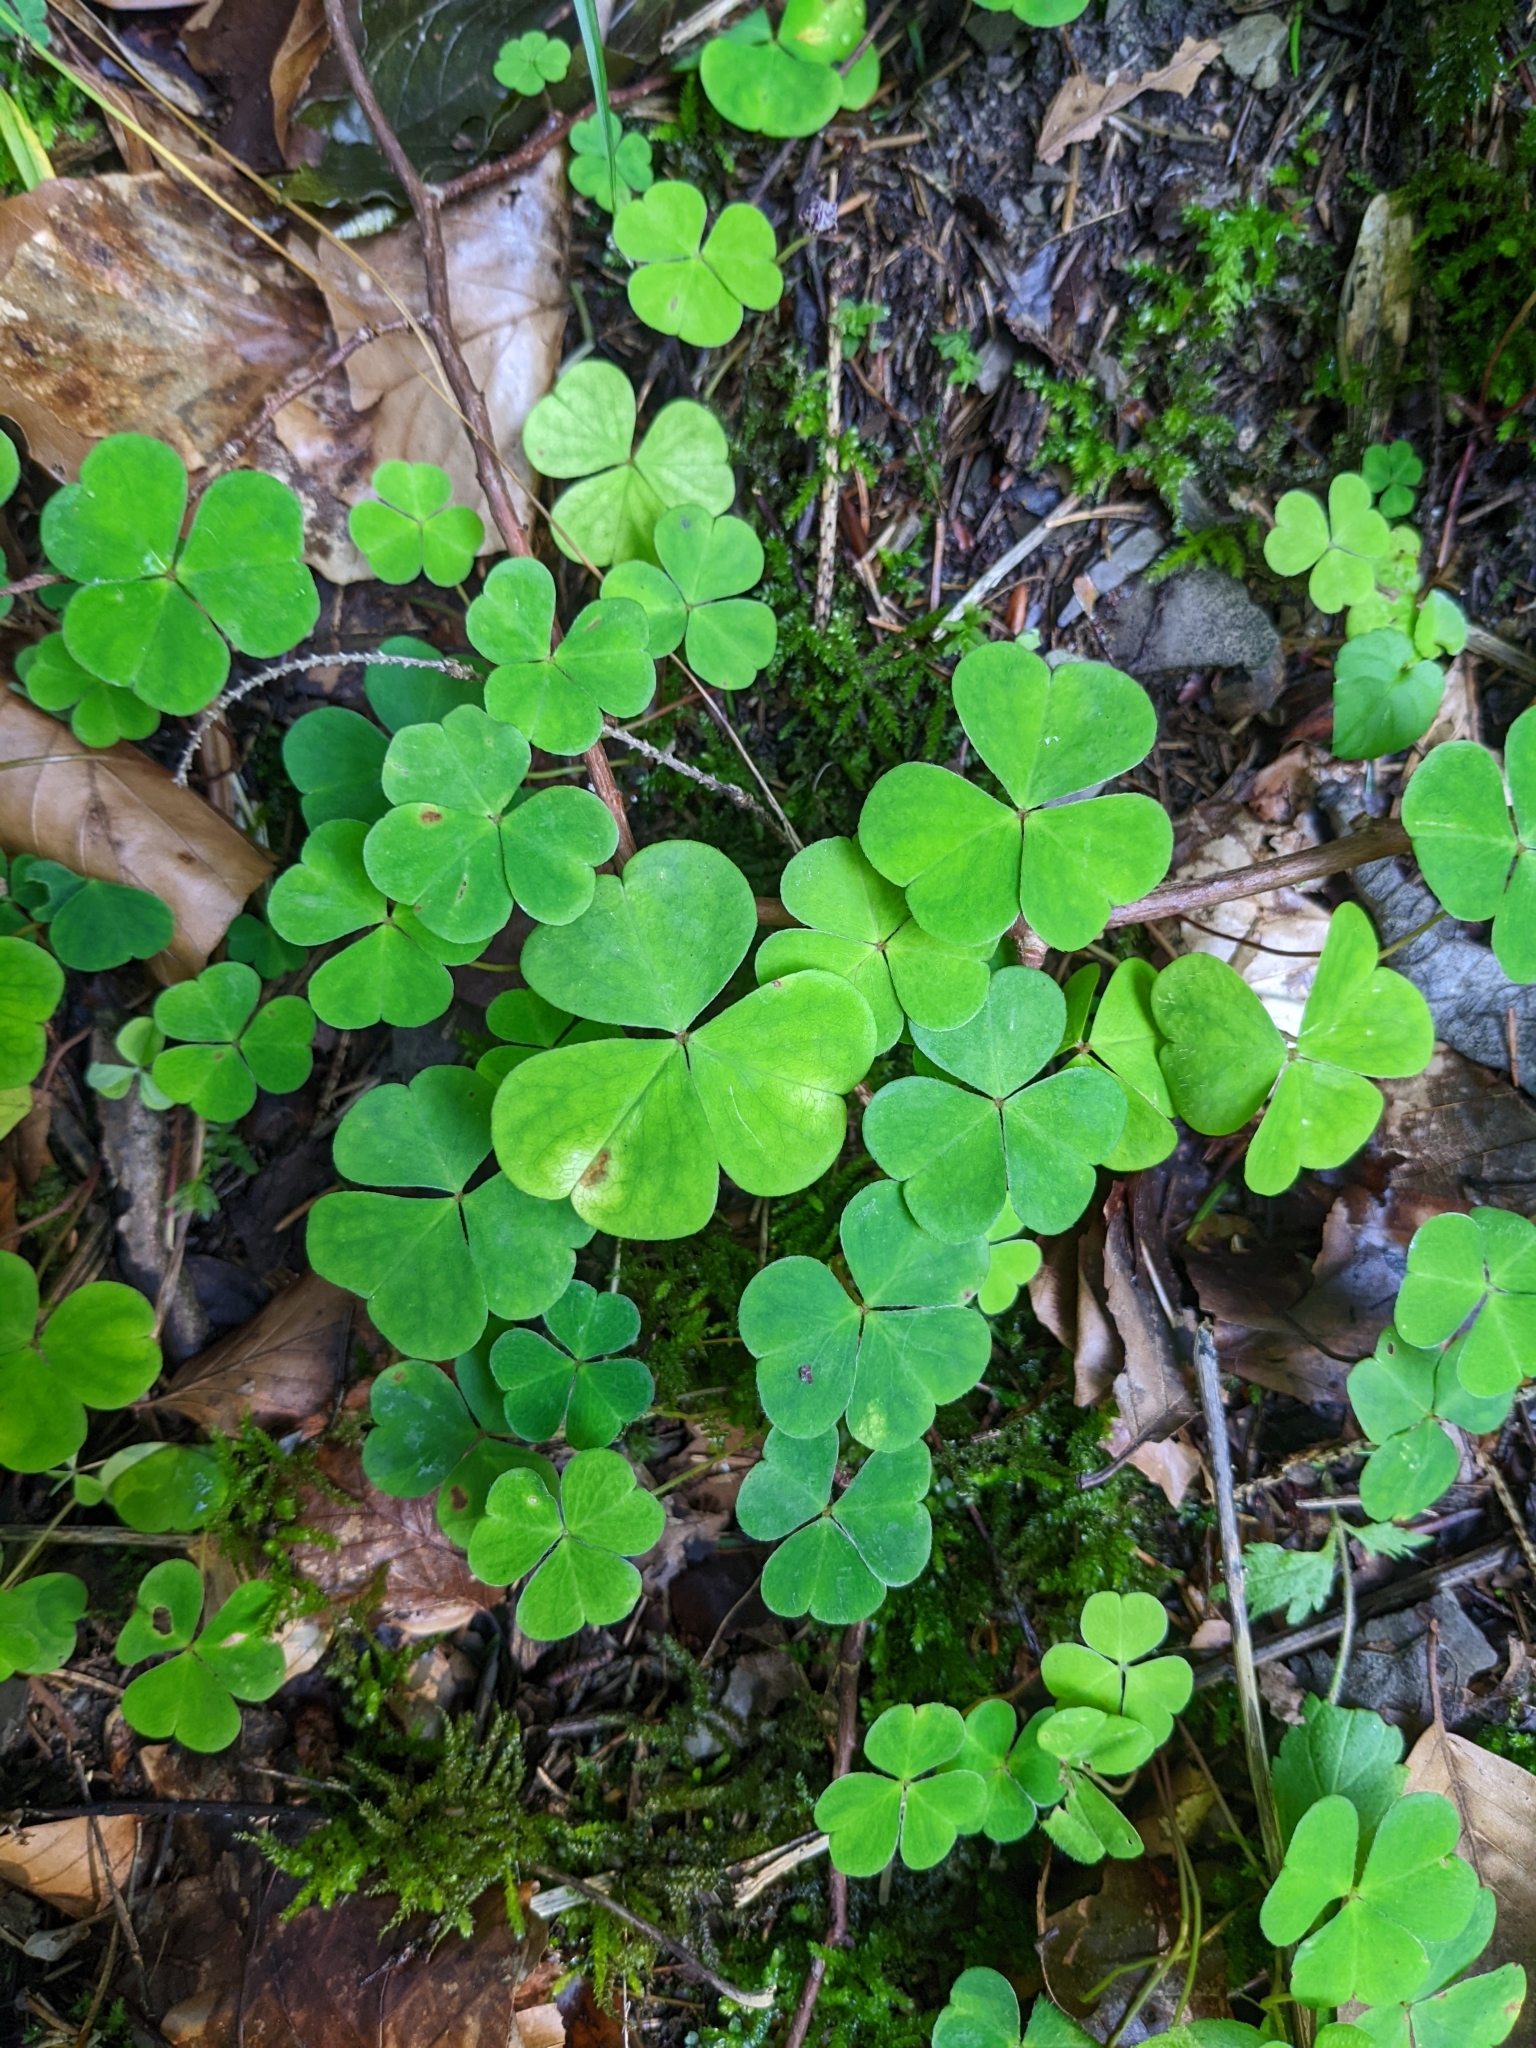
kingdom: Plantae
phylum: Tracheophyta
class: Magnoliopsida
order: Oxalidales
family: Oxalidaceae
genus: Oxalis
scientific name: Oxalis acetosella
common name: Wood-sorrel
